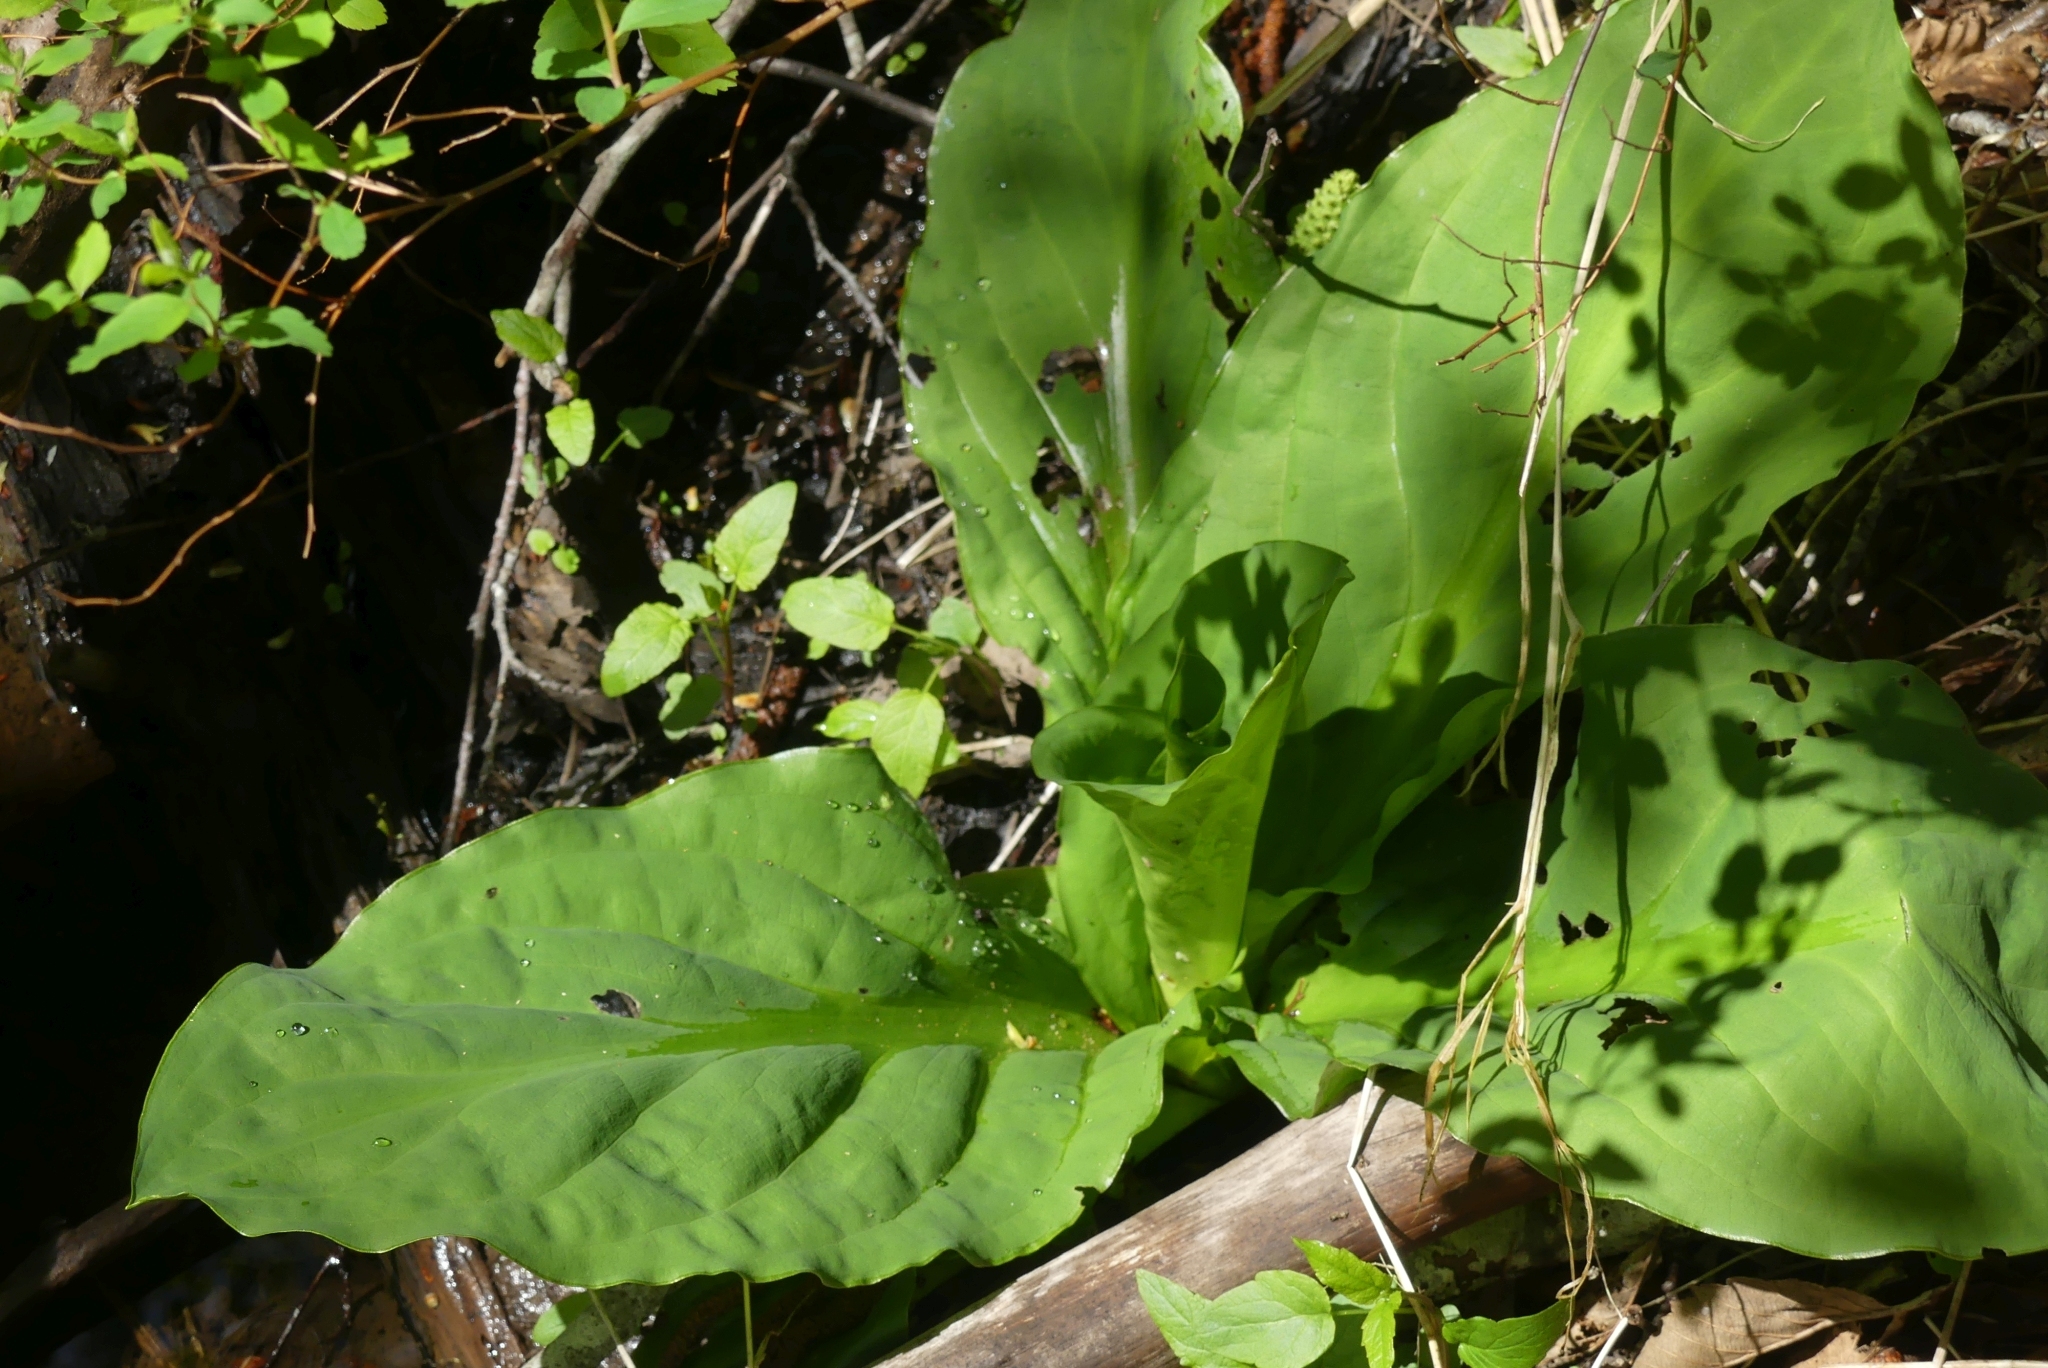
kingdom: Plantae
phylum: Tracheophyta
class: Liliopsida
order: Alismatales
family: Araceae
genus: Lysichiton
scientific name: Lysichiton americanus
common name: American skunk cabbage
